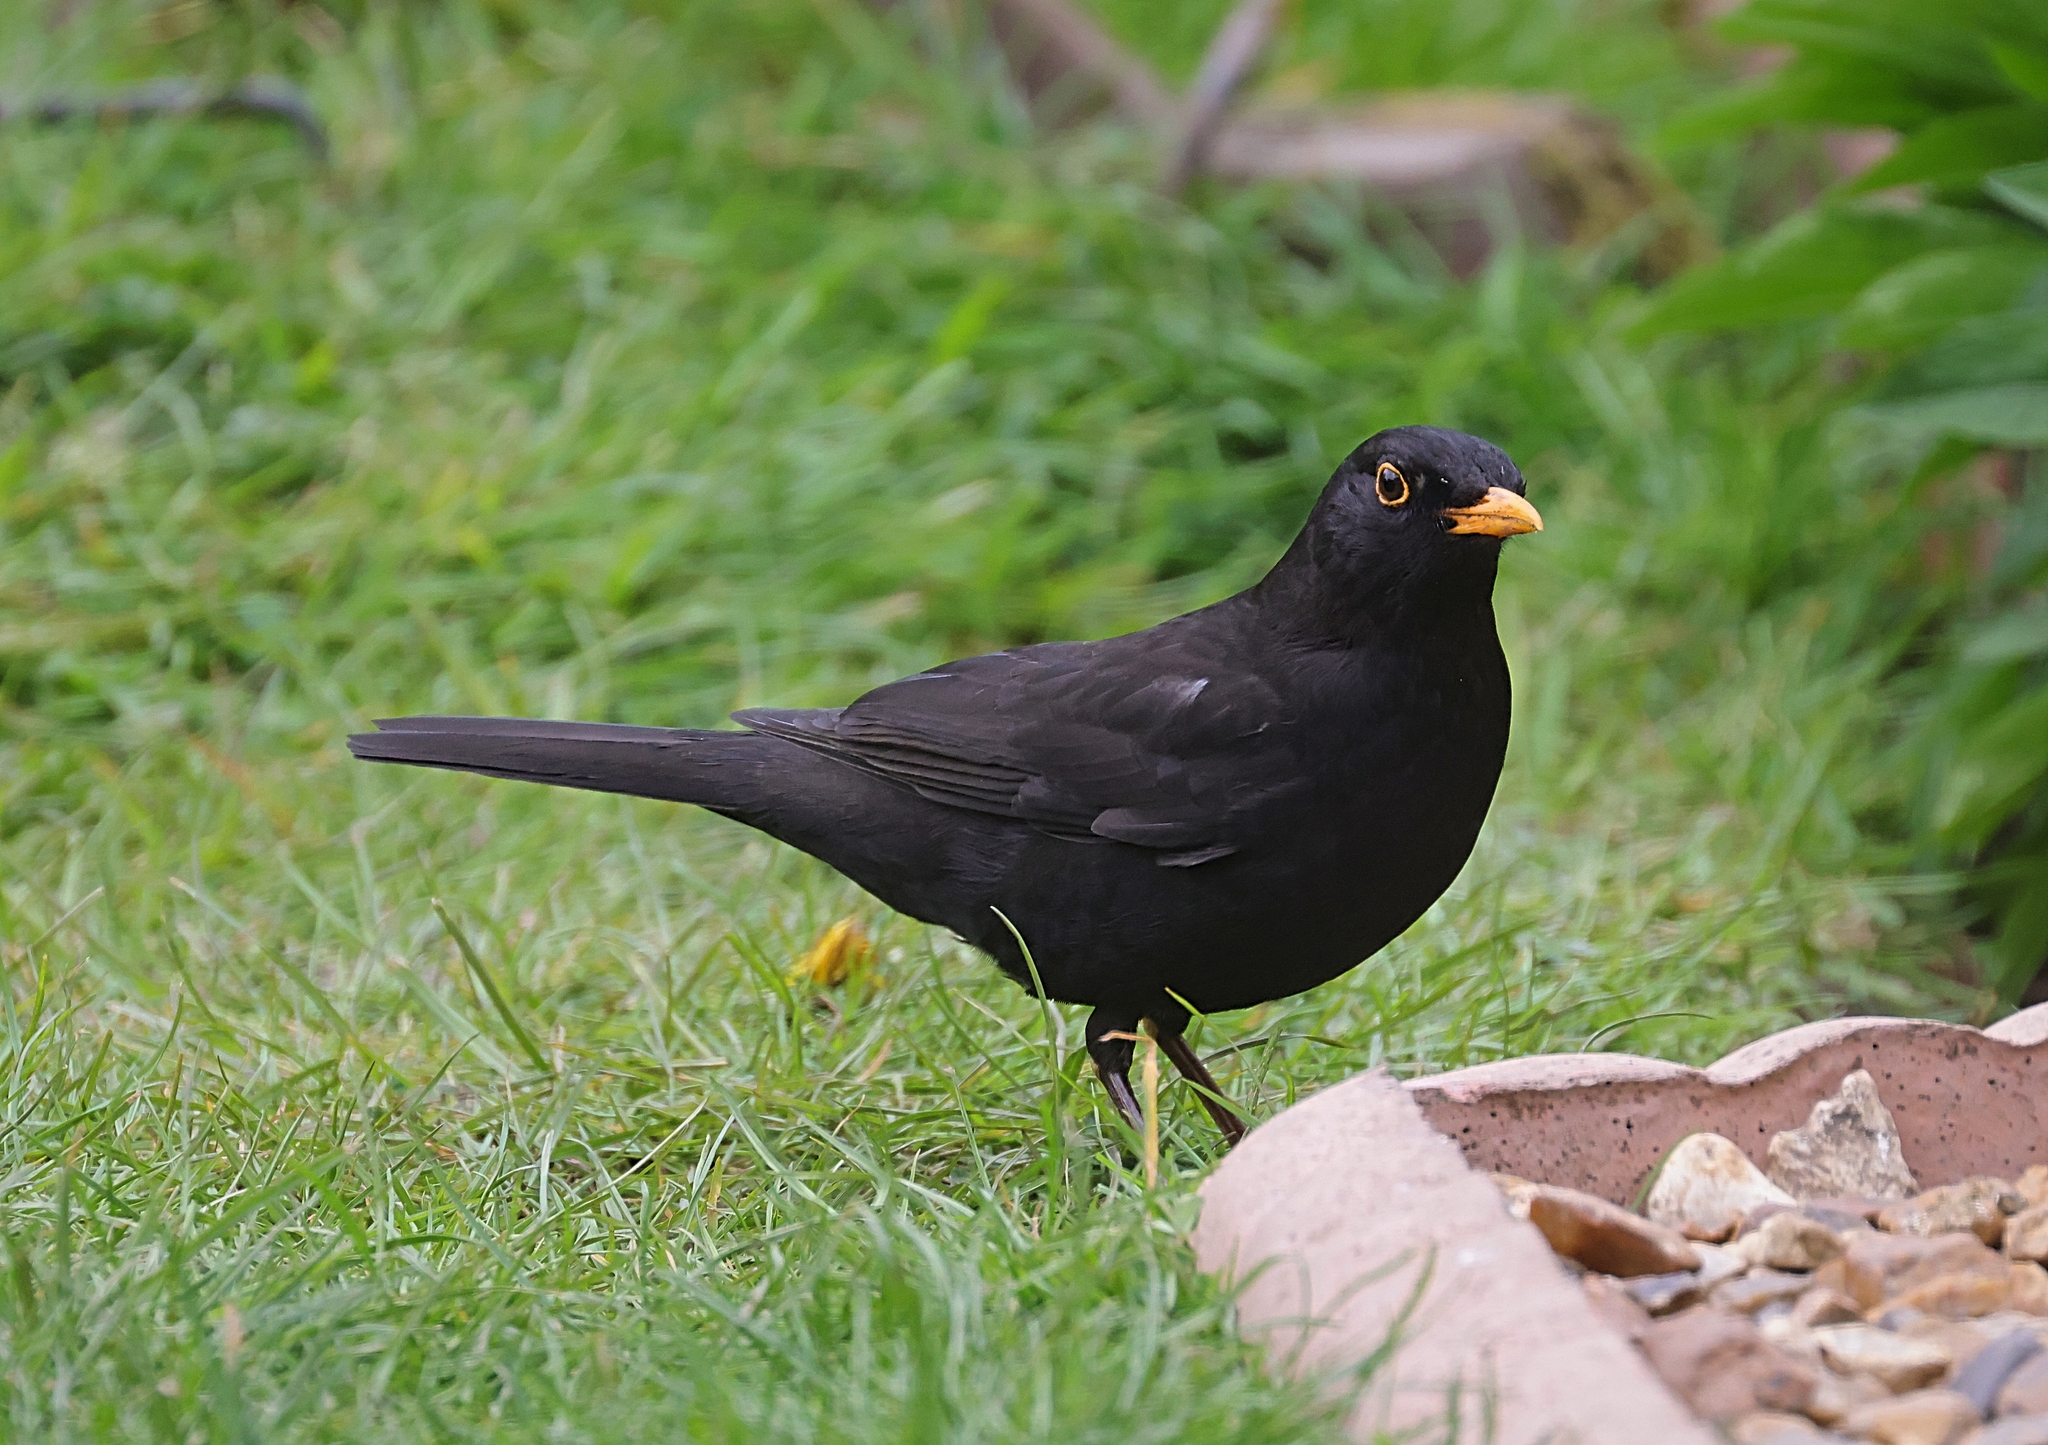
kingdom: Animalia
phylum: Chordata
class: Aves
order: Passeriformes
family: Turdidae
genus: Turdus
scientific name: Turdus merula
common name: Common blackbird
